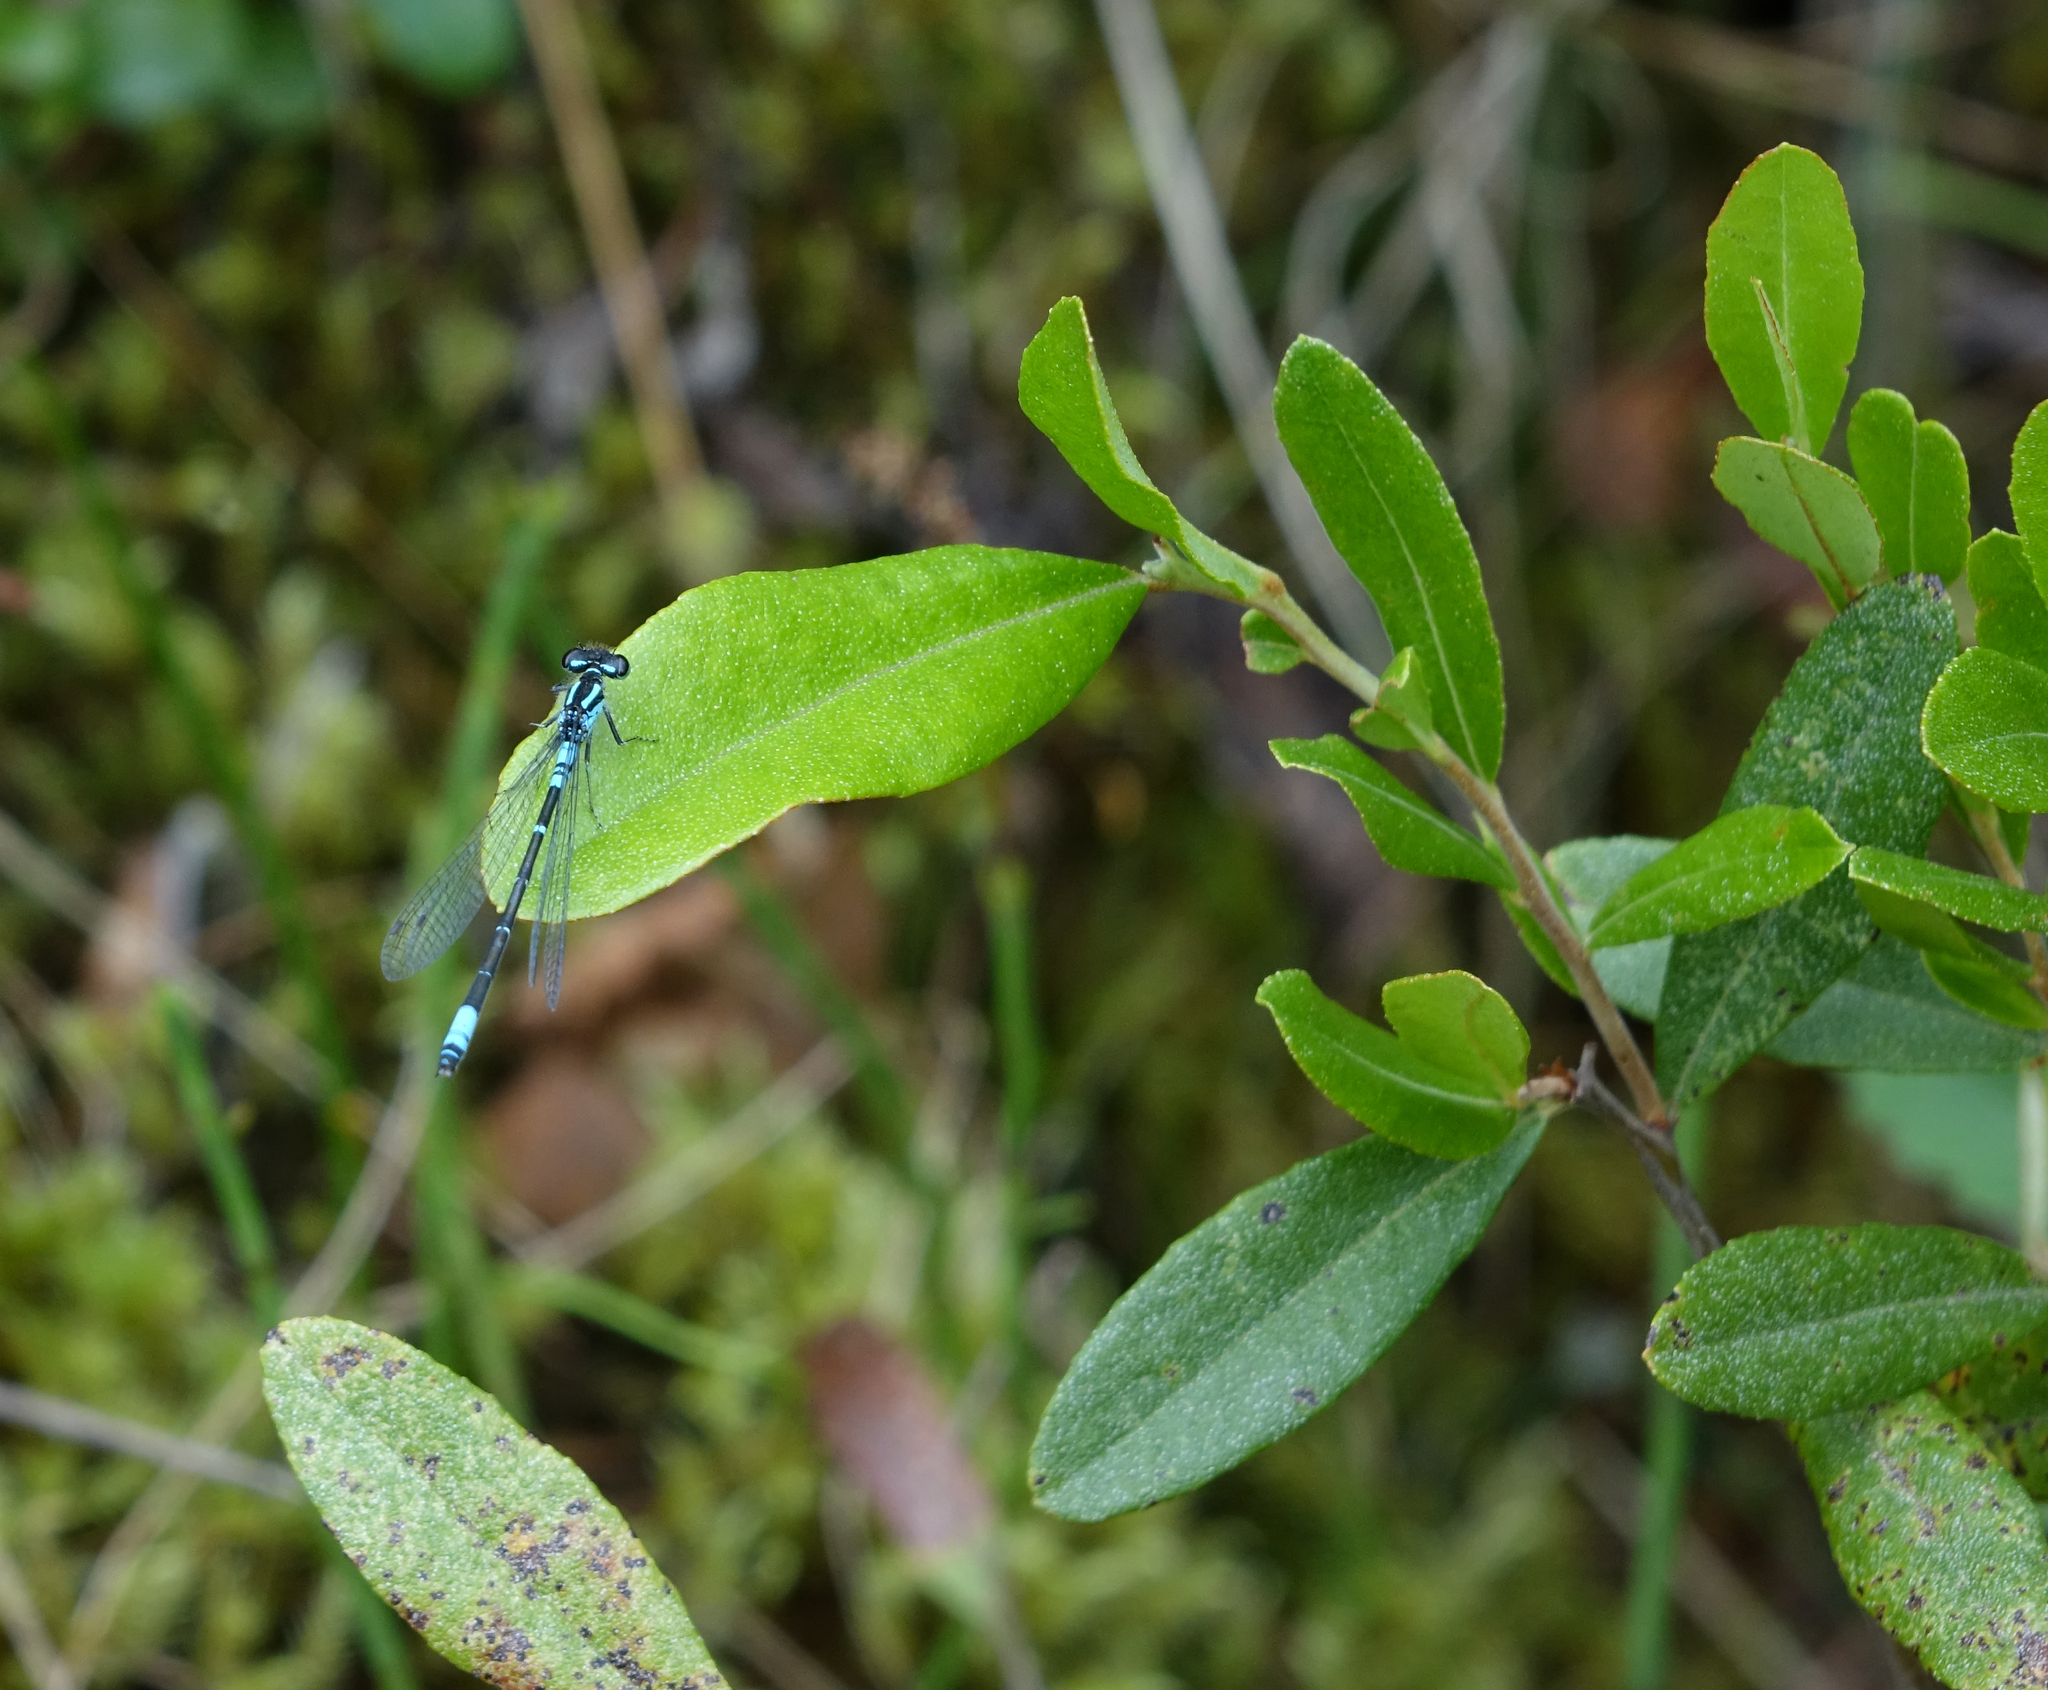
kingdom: Plantae
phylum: Tracheophyta
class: Magnoliopsida
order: Ericales
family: Ericaceae
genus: Chamaedaphne
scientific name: Chamaedaphne calyculata
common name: Leatherleaf
